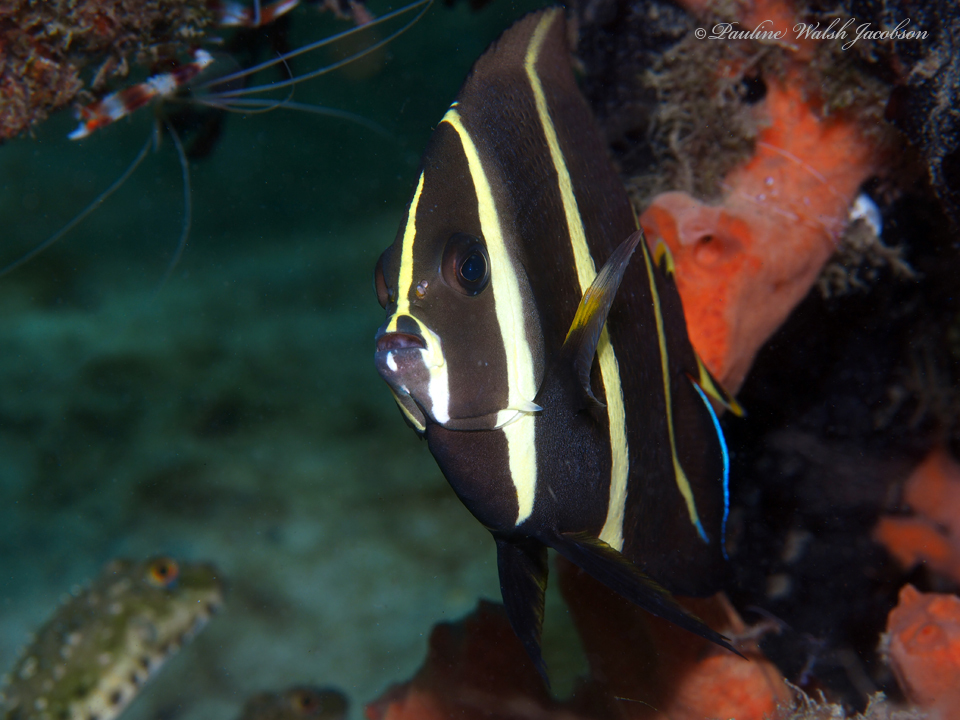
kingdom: Animalia
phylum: Chordata
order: Perciformes
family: Pomacanthidae
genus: Pomacanthus
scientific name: Pomacanthus arcuatus
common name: Gray angelfish
